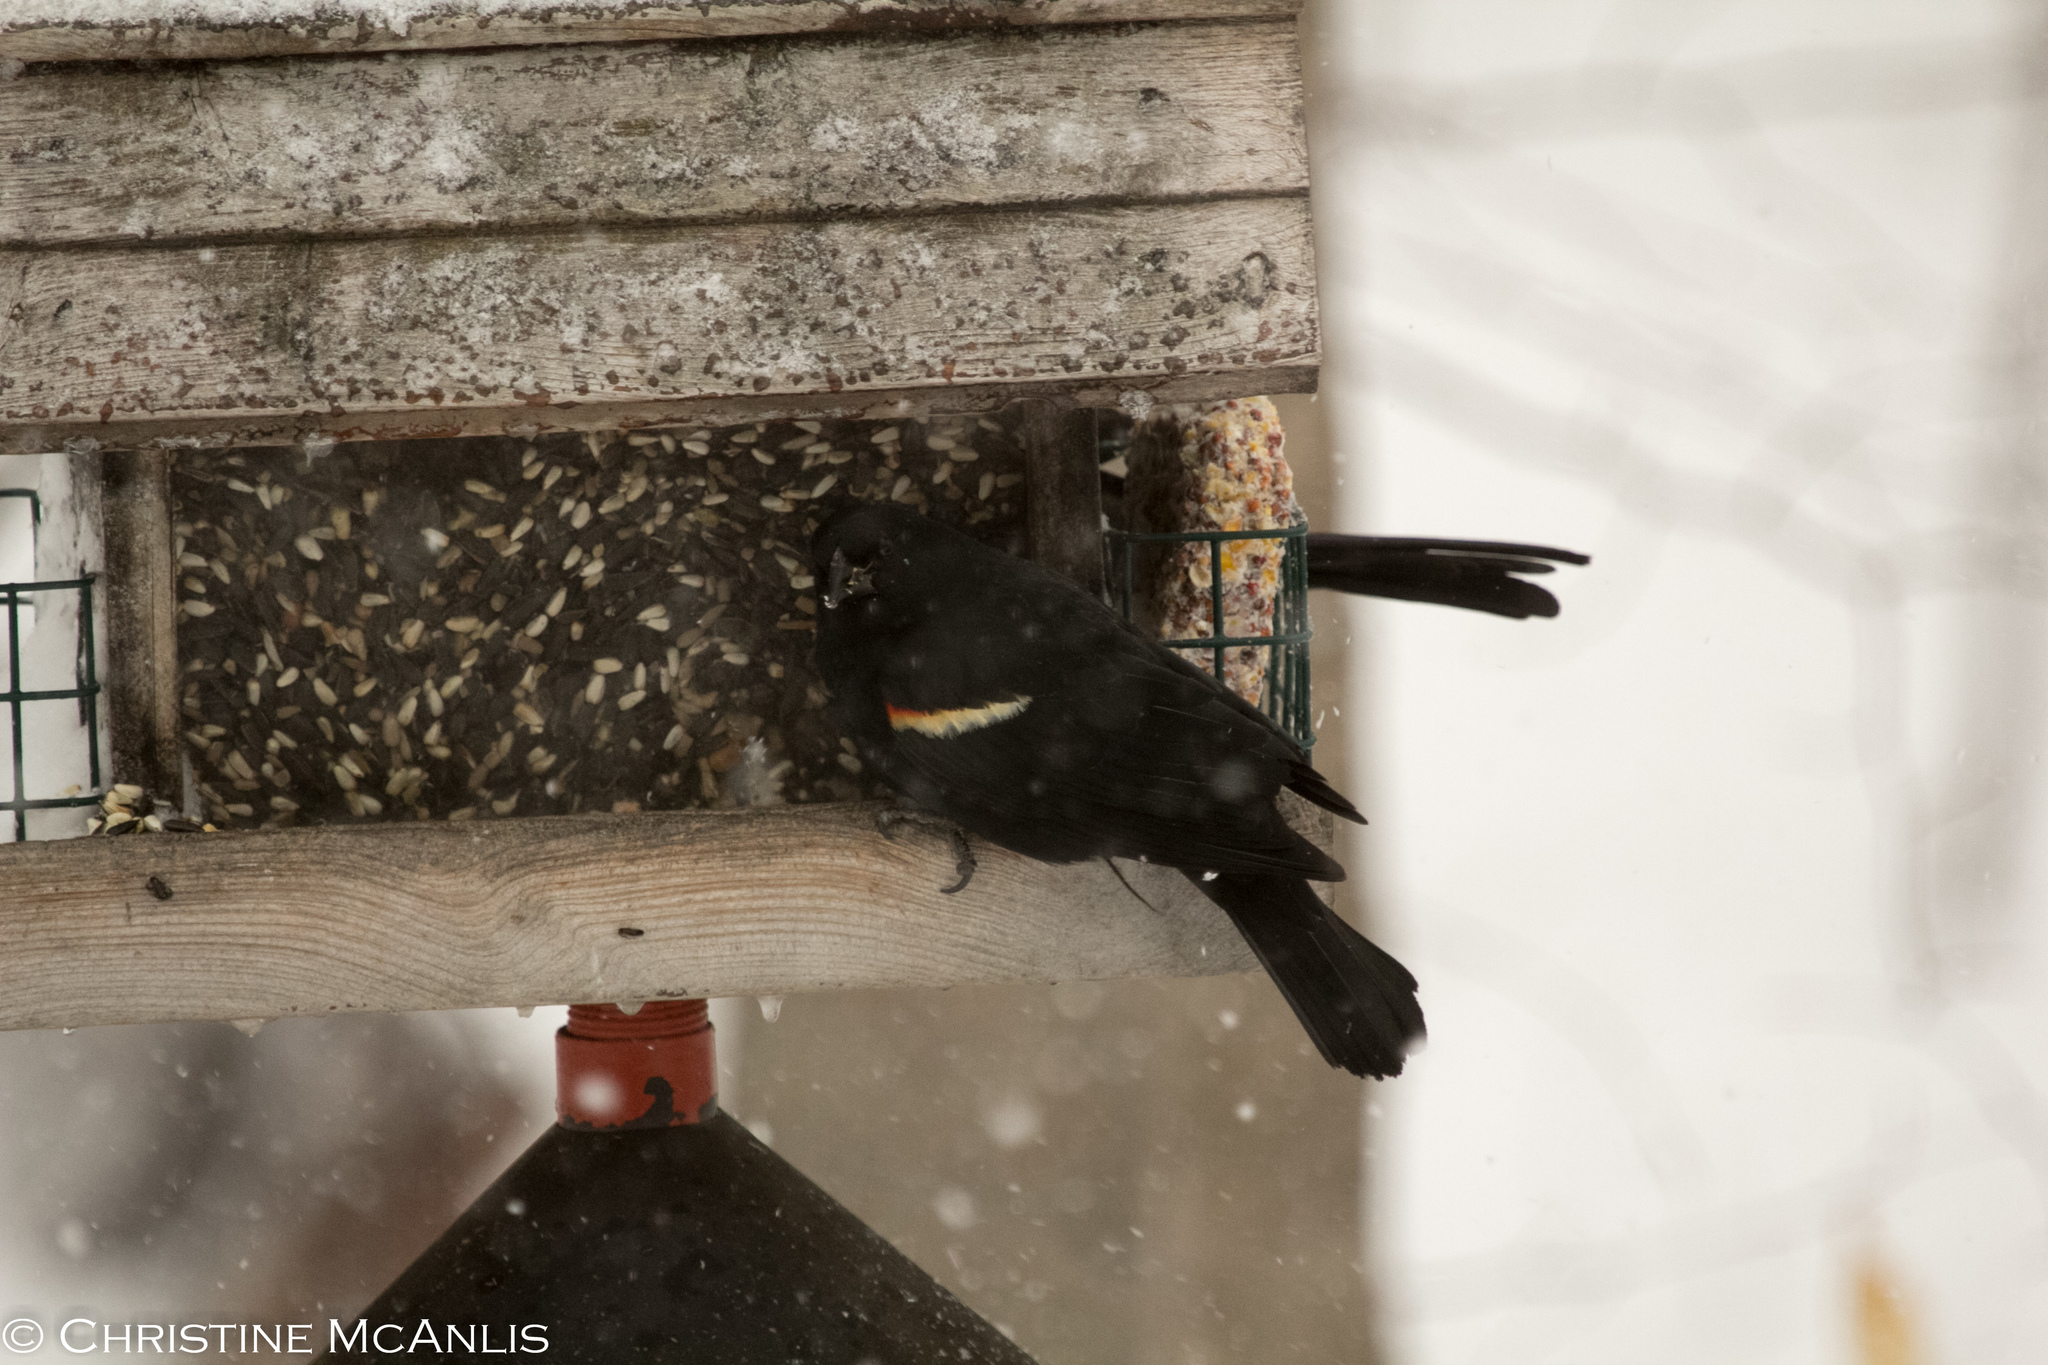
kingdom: Animalia
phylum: Chordata
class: Aves
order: Passeriformes
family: Icteridae
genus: Agelaius
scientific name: Agelaius phoeniceus
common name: Red-winged blackbird
